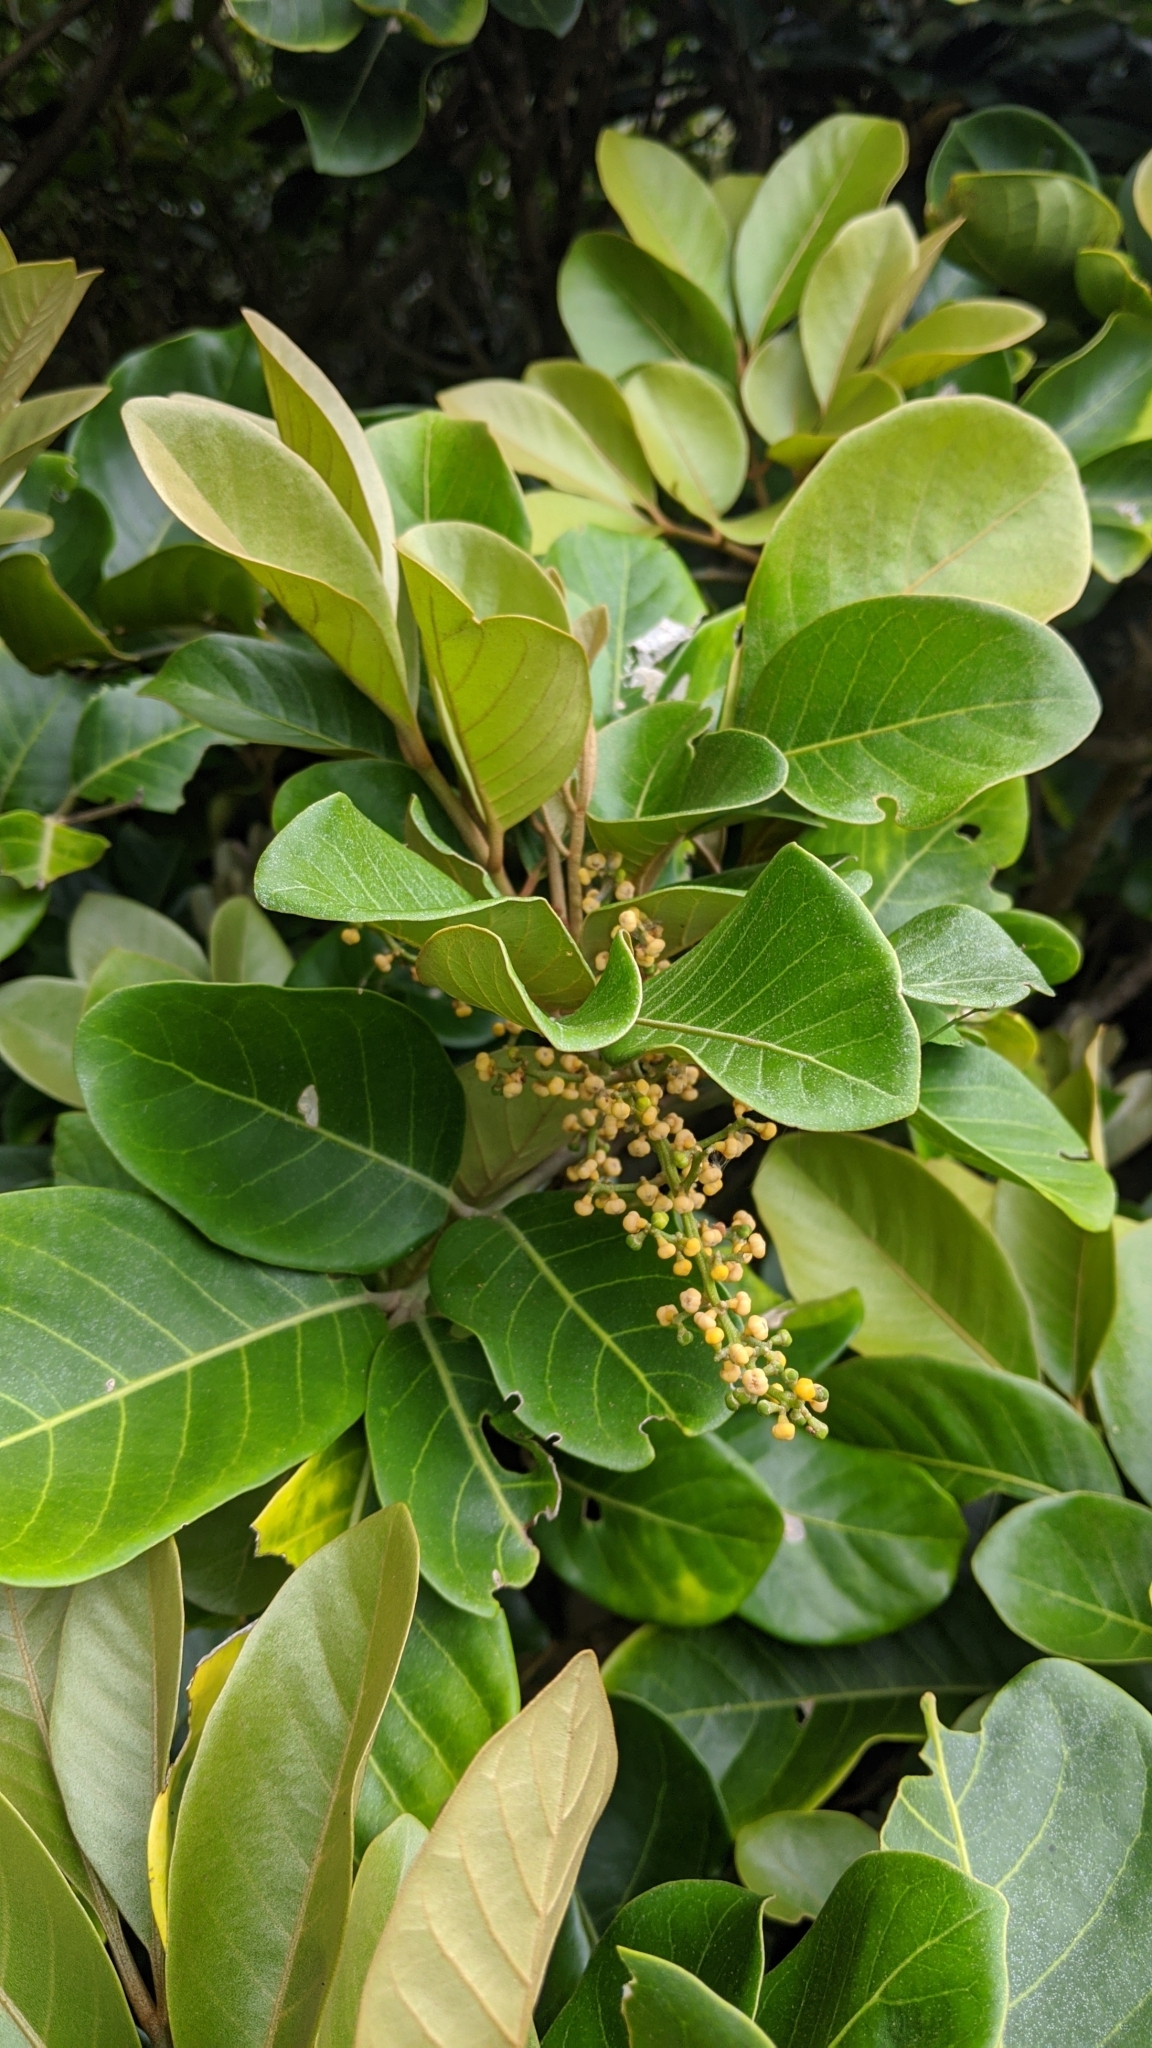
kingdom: Plantae
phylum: Tracheophyta
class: Magnoliopsida
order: Sapindales
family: Meliaceae
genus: Aglaia
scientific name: Aglaia rimosa
